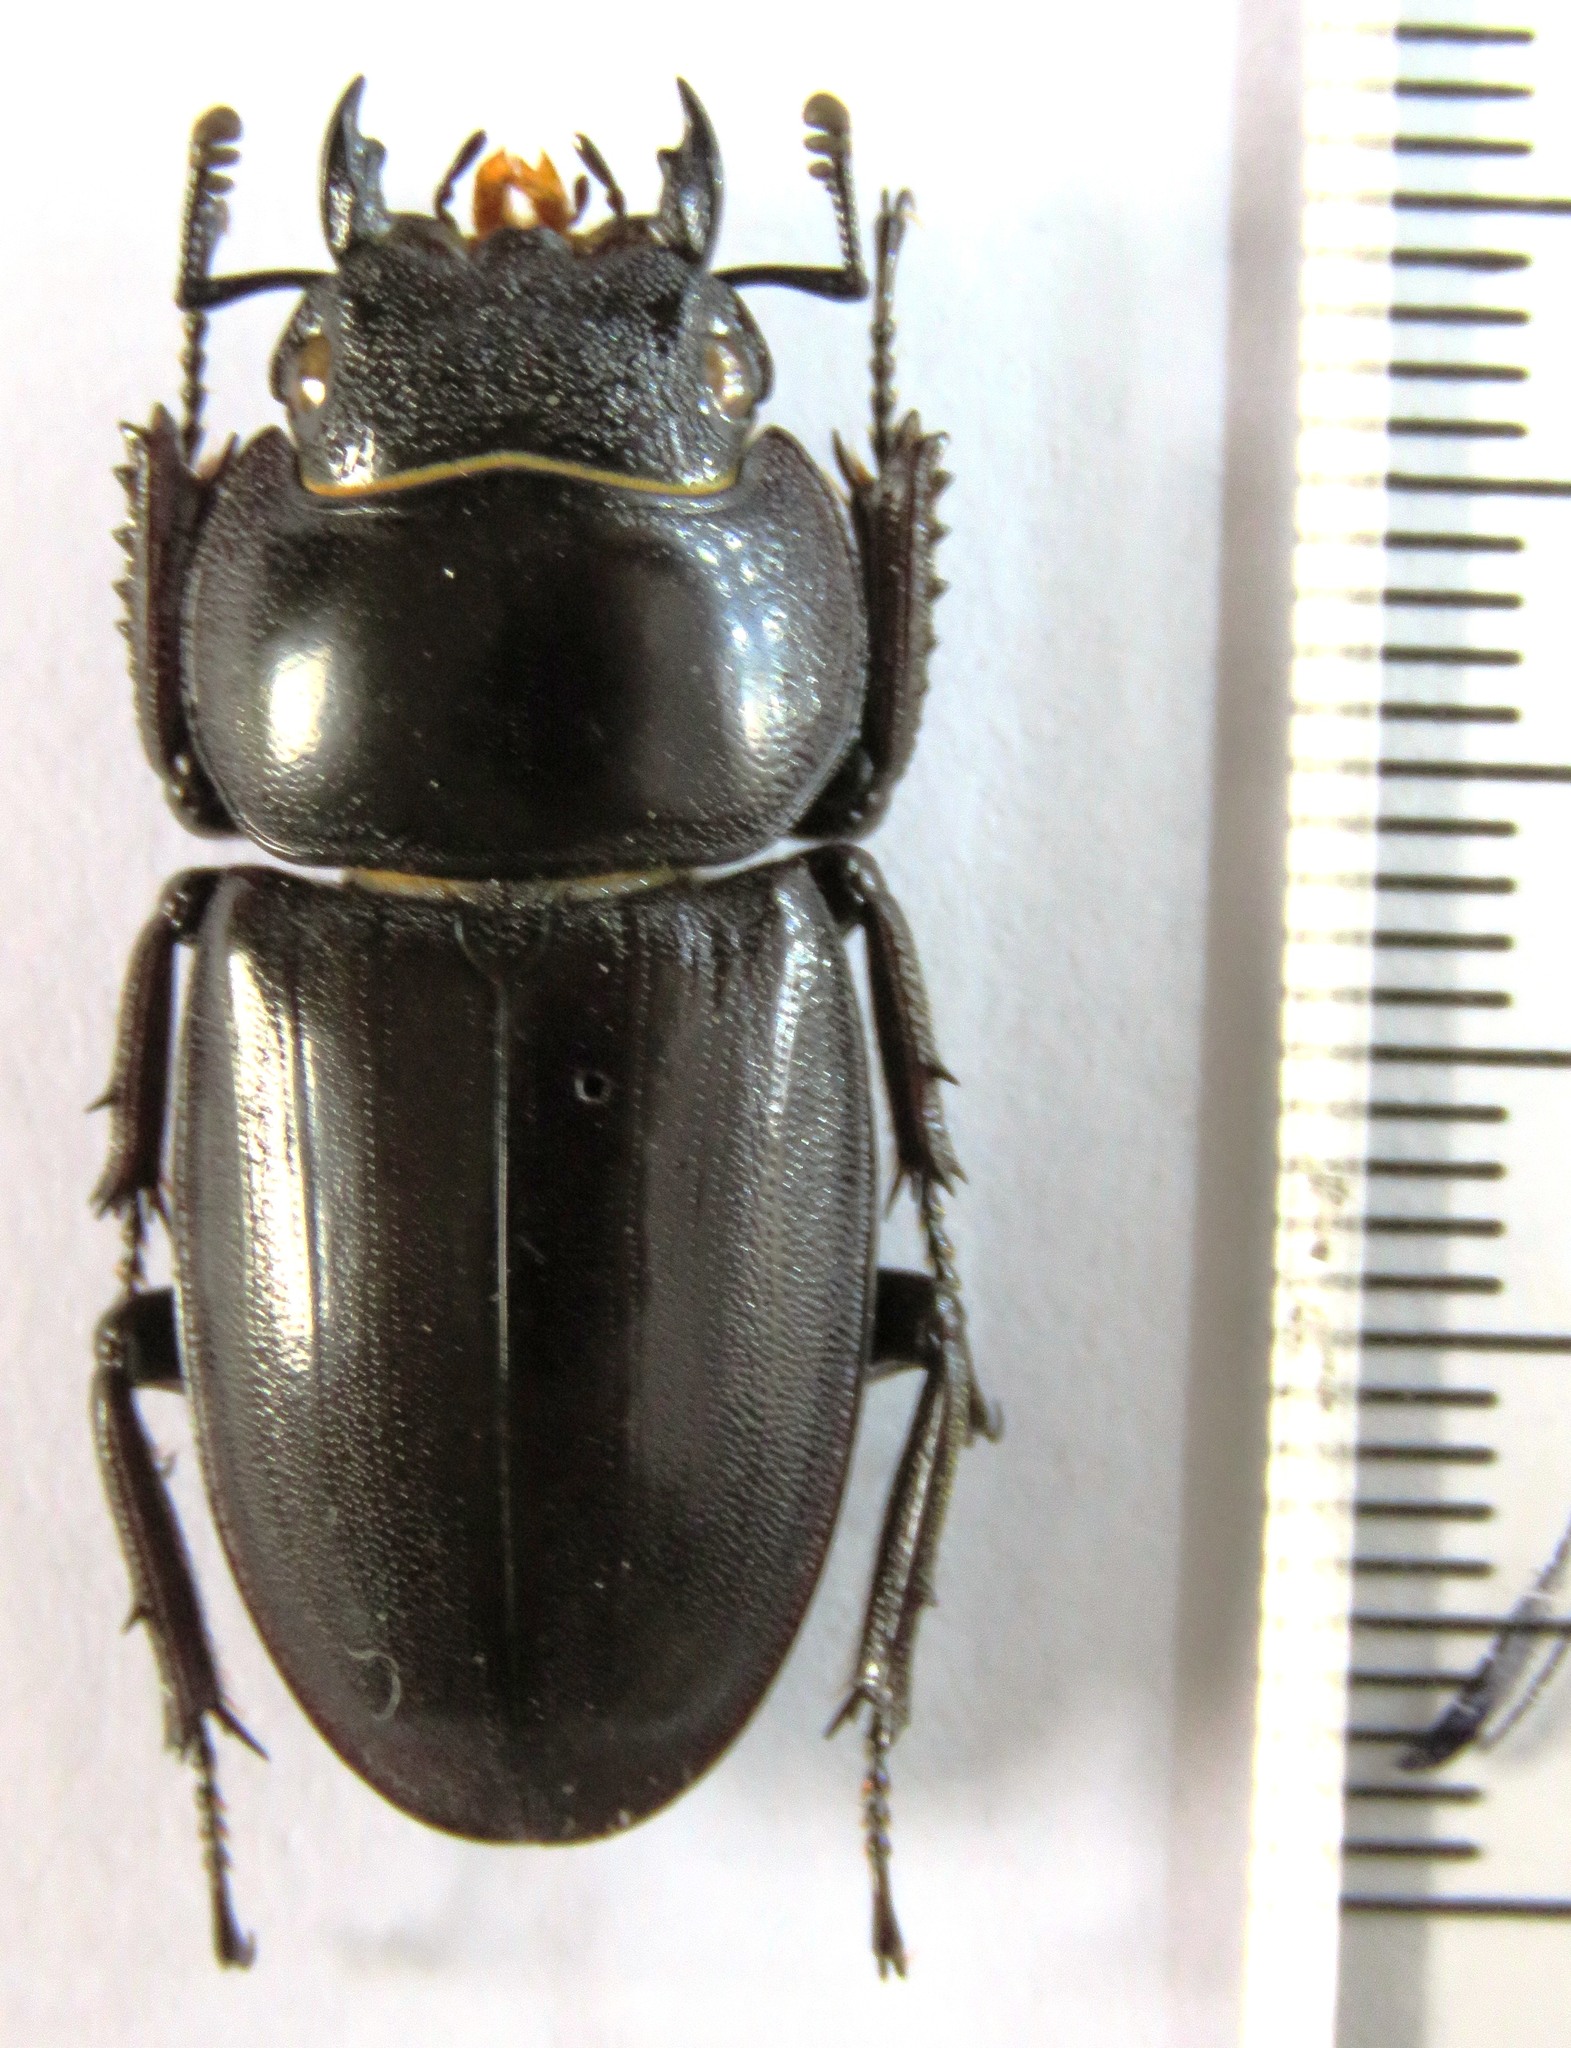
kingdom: Animalia
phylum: Arthropoda
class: Insecta
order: Coleoptera
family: Lucanidae
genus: Serrognathus
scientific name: Serrognathus titanus
